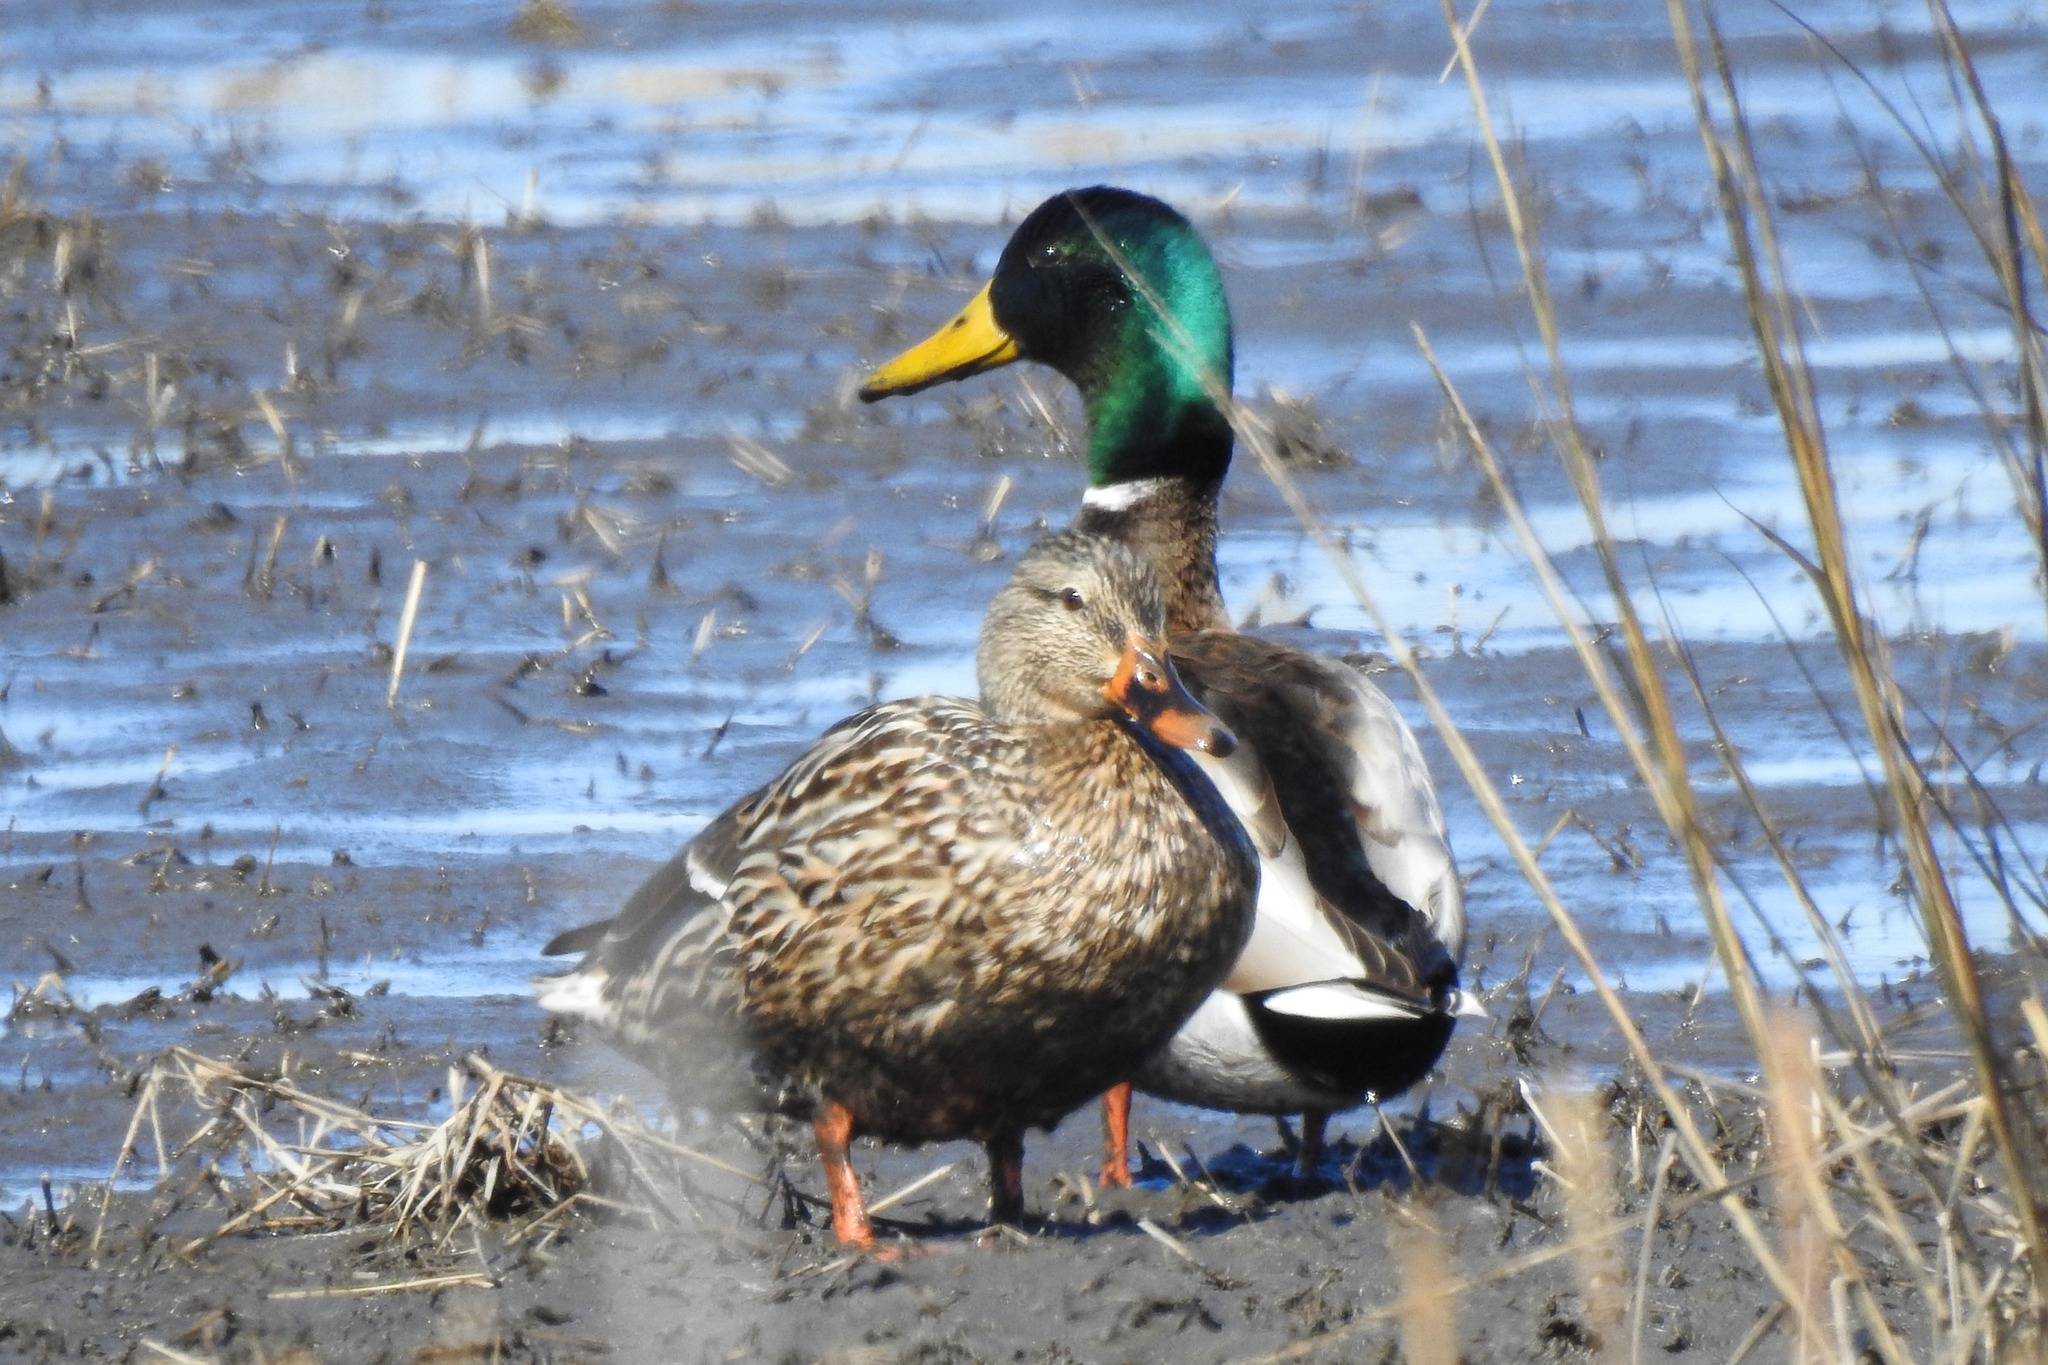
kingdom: Animalia
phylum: Chordata
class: Aves
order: Anseriformes
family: Anatidae
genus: Anas
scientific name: Anas platyrhynchos
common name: Mallard
